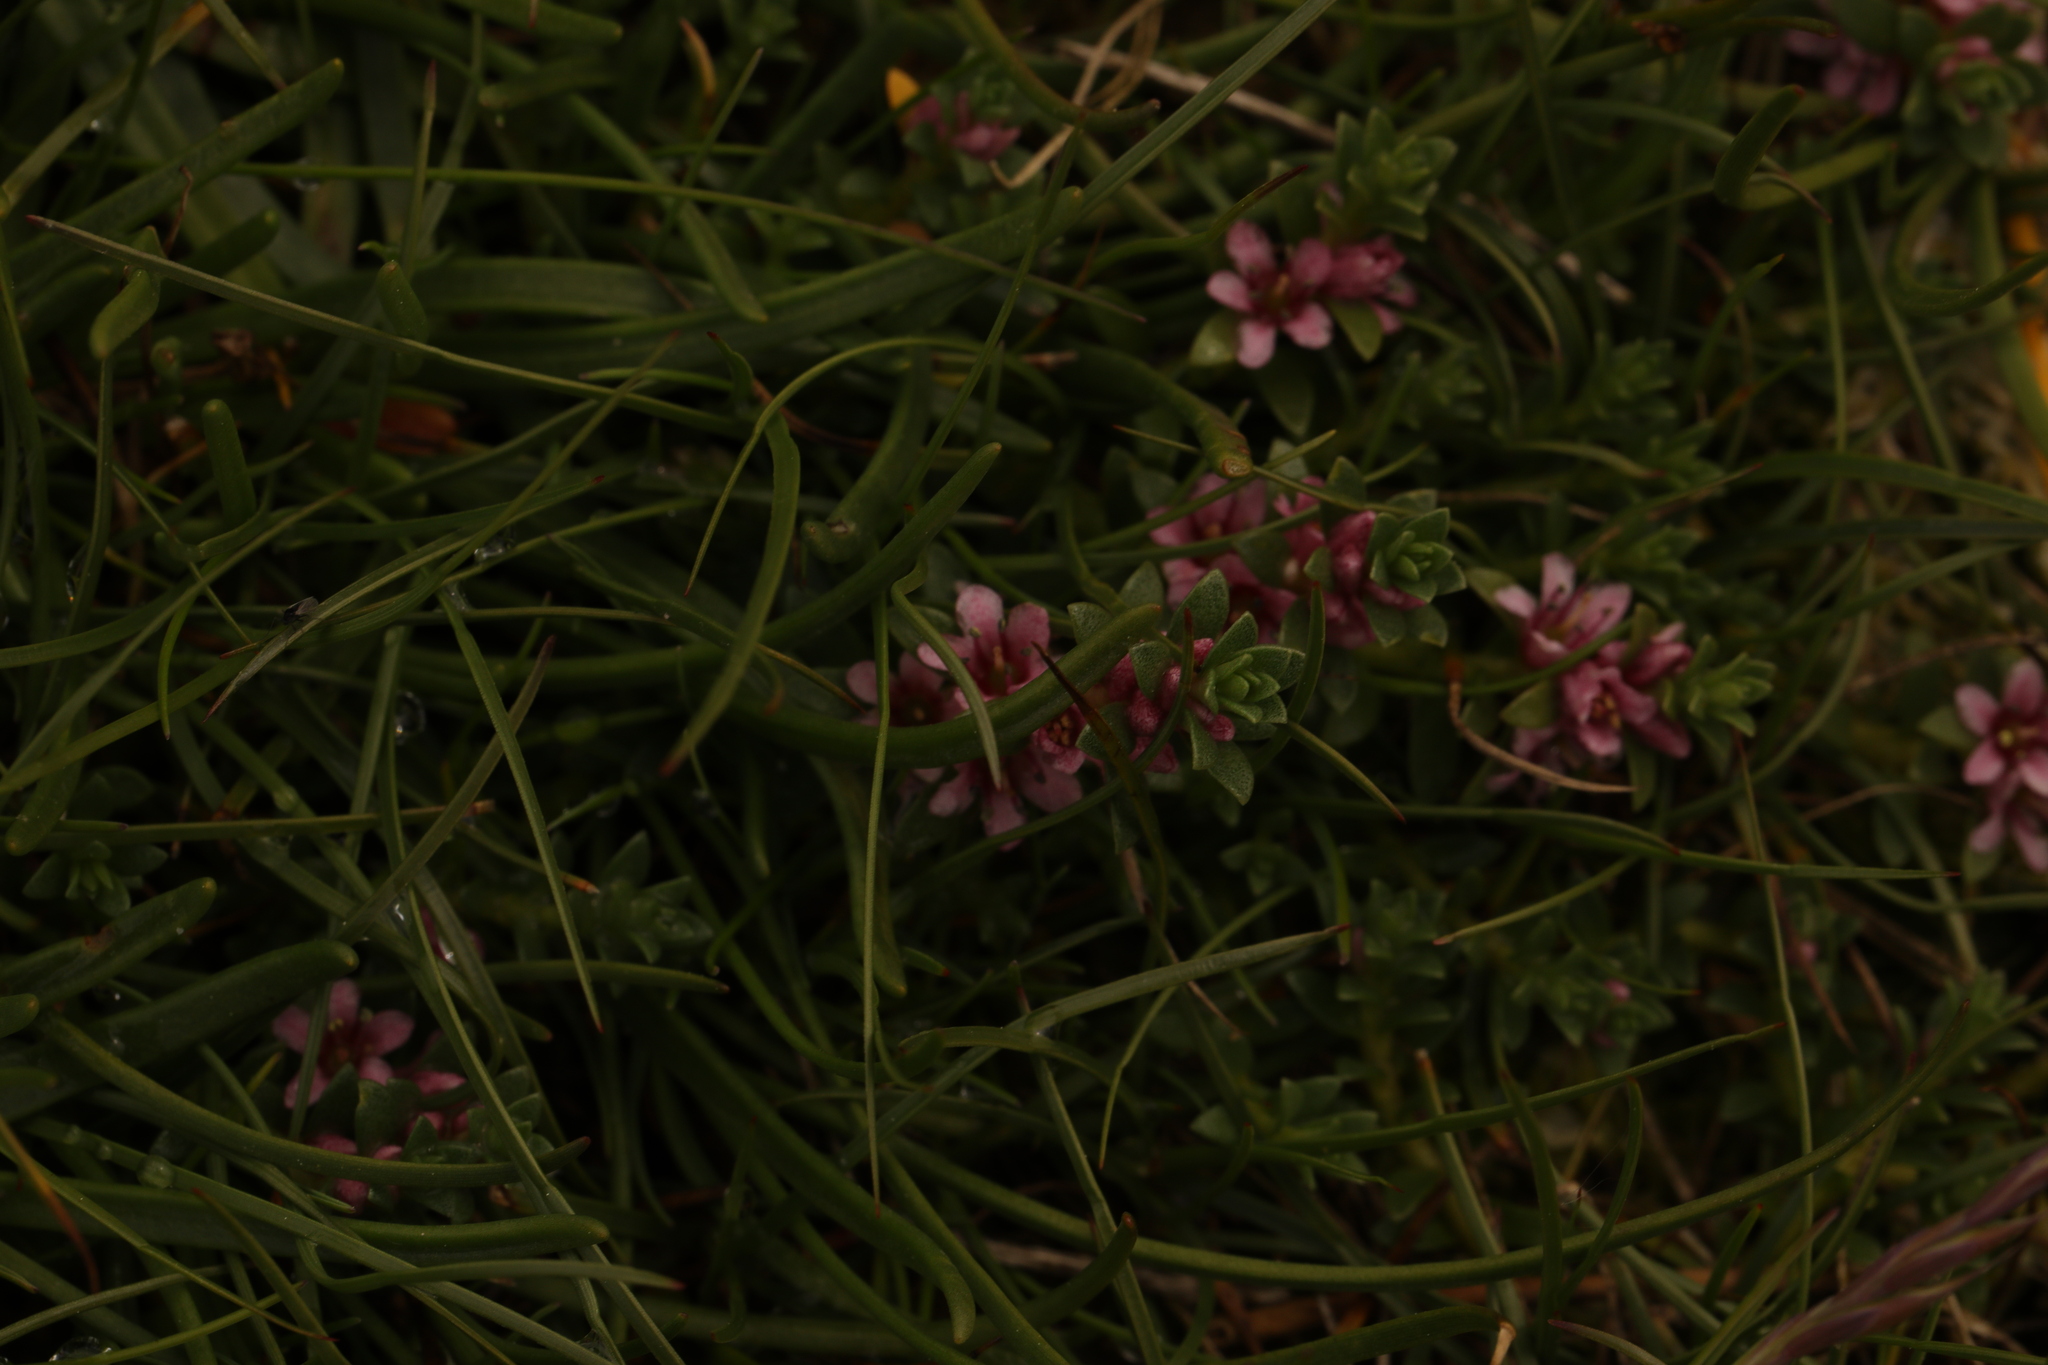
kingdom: Plantae
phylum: Tracheophyta
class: Magnoliopsida
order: Ericales
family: Primulaceae
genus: Lysimachia
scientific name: Lysimachia maritima
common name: Sea milkwort
